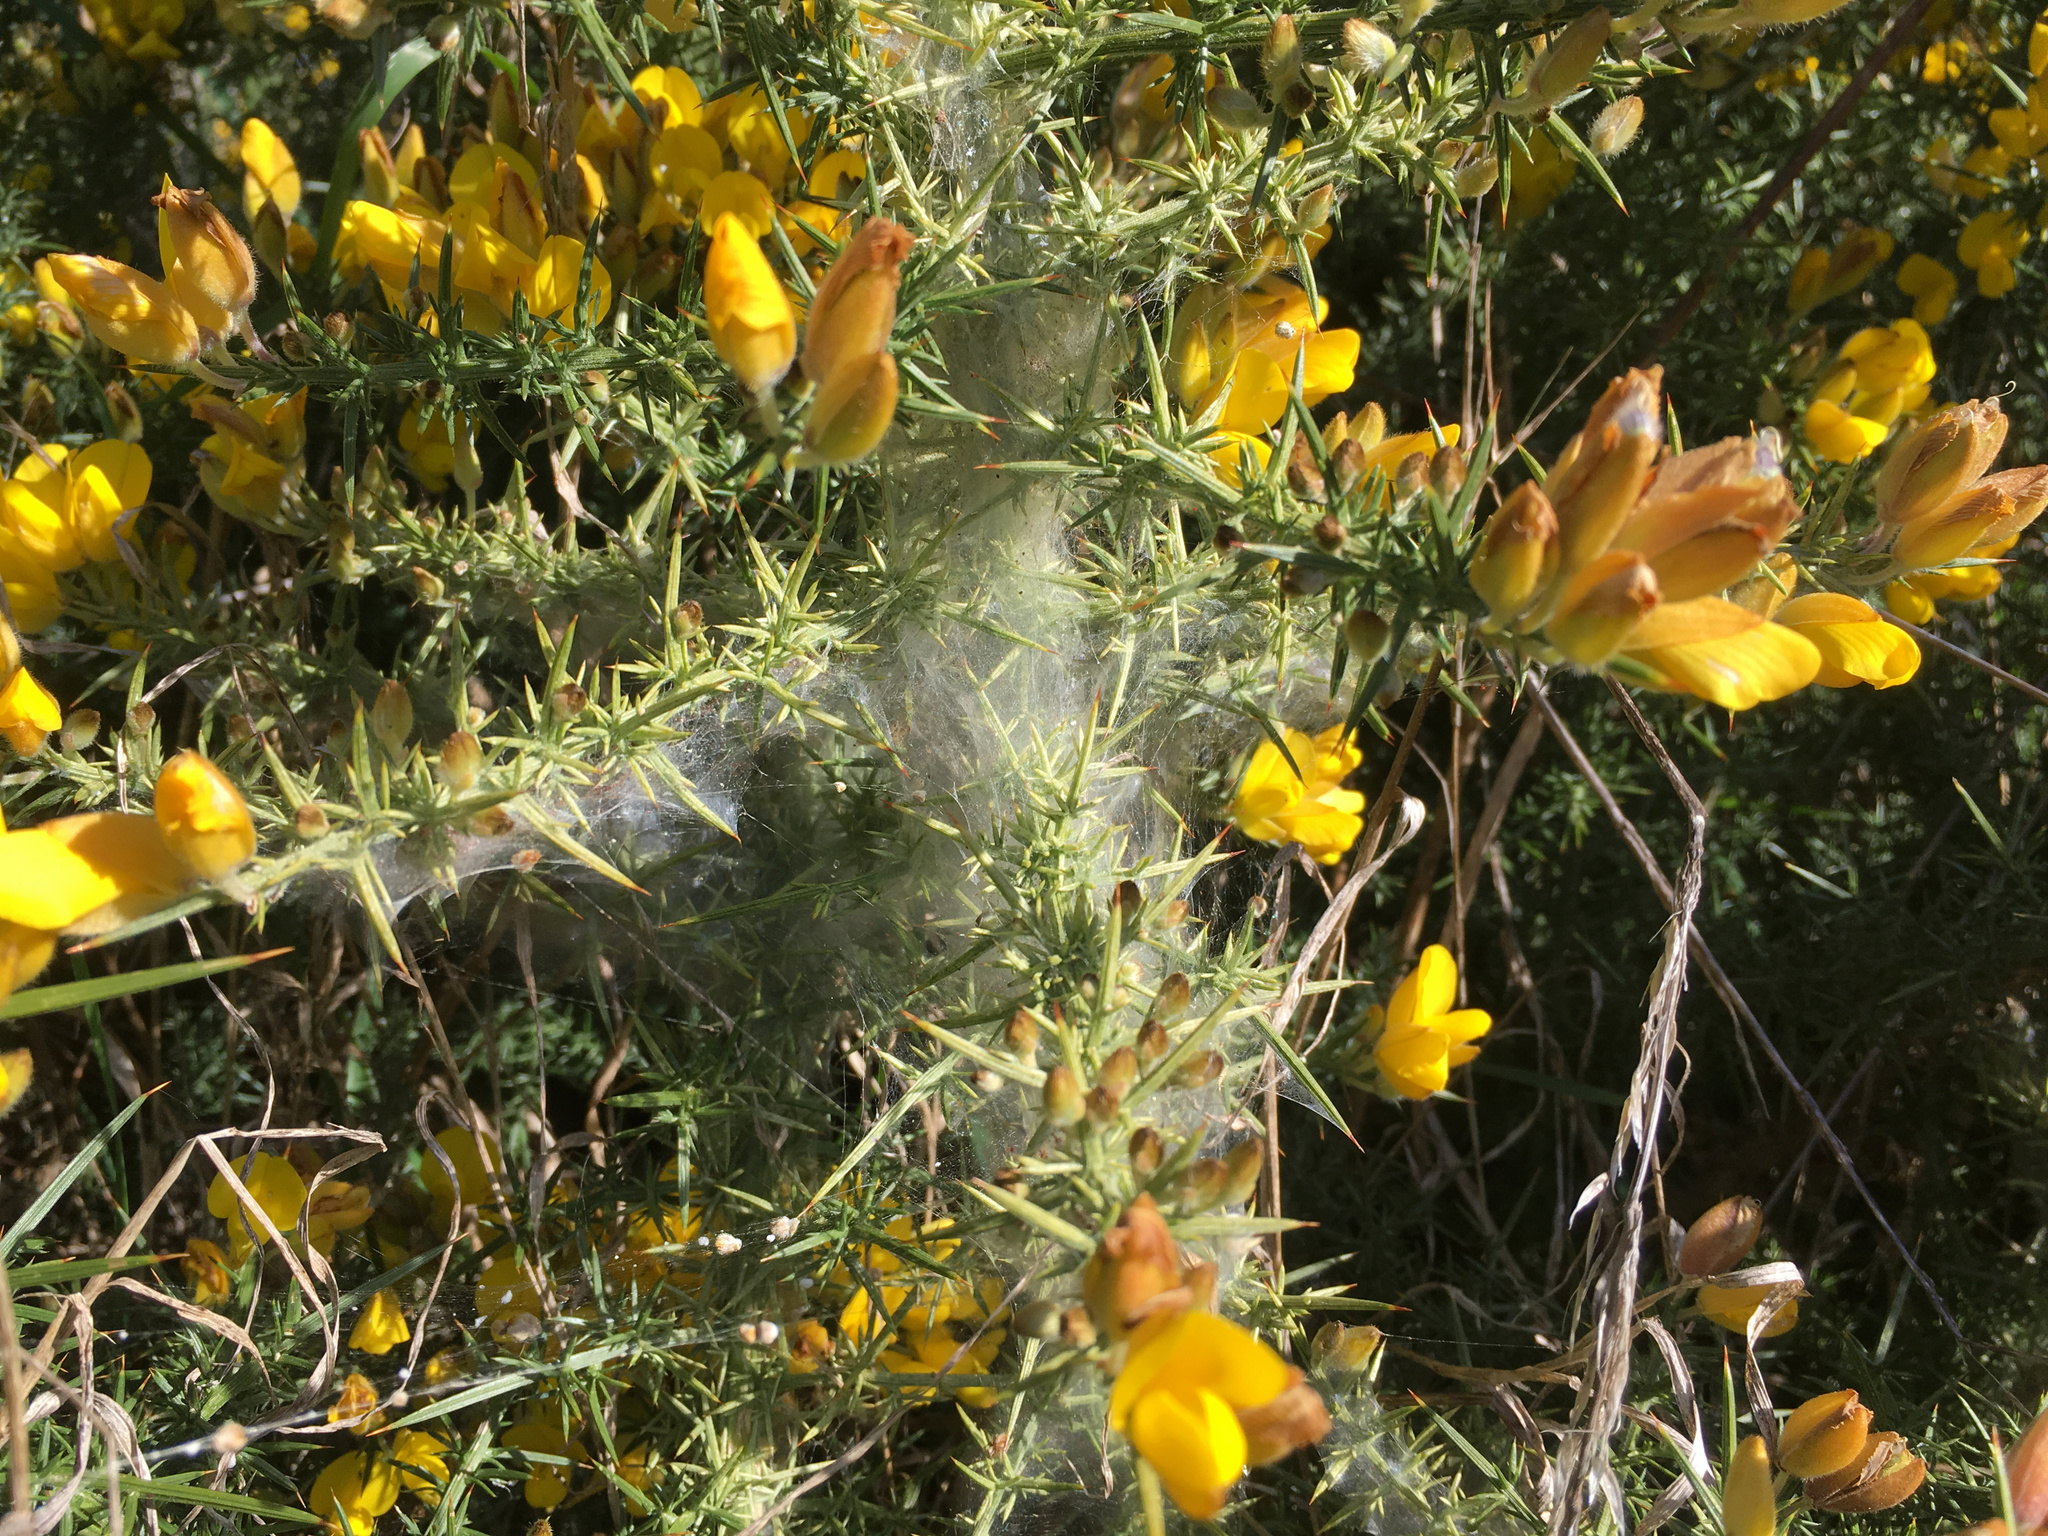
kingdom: Animalia
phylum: Arthropoda
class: Arachnida
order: Trombidiformes
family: Tetranychidae
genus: Tetranychus
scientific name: Tetranychus lintearius
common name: Gorse spider mite
